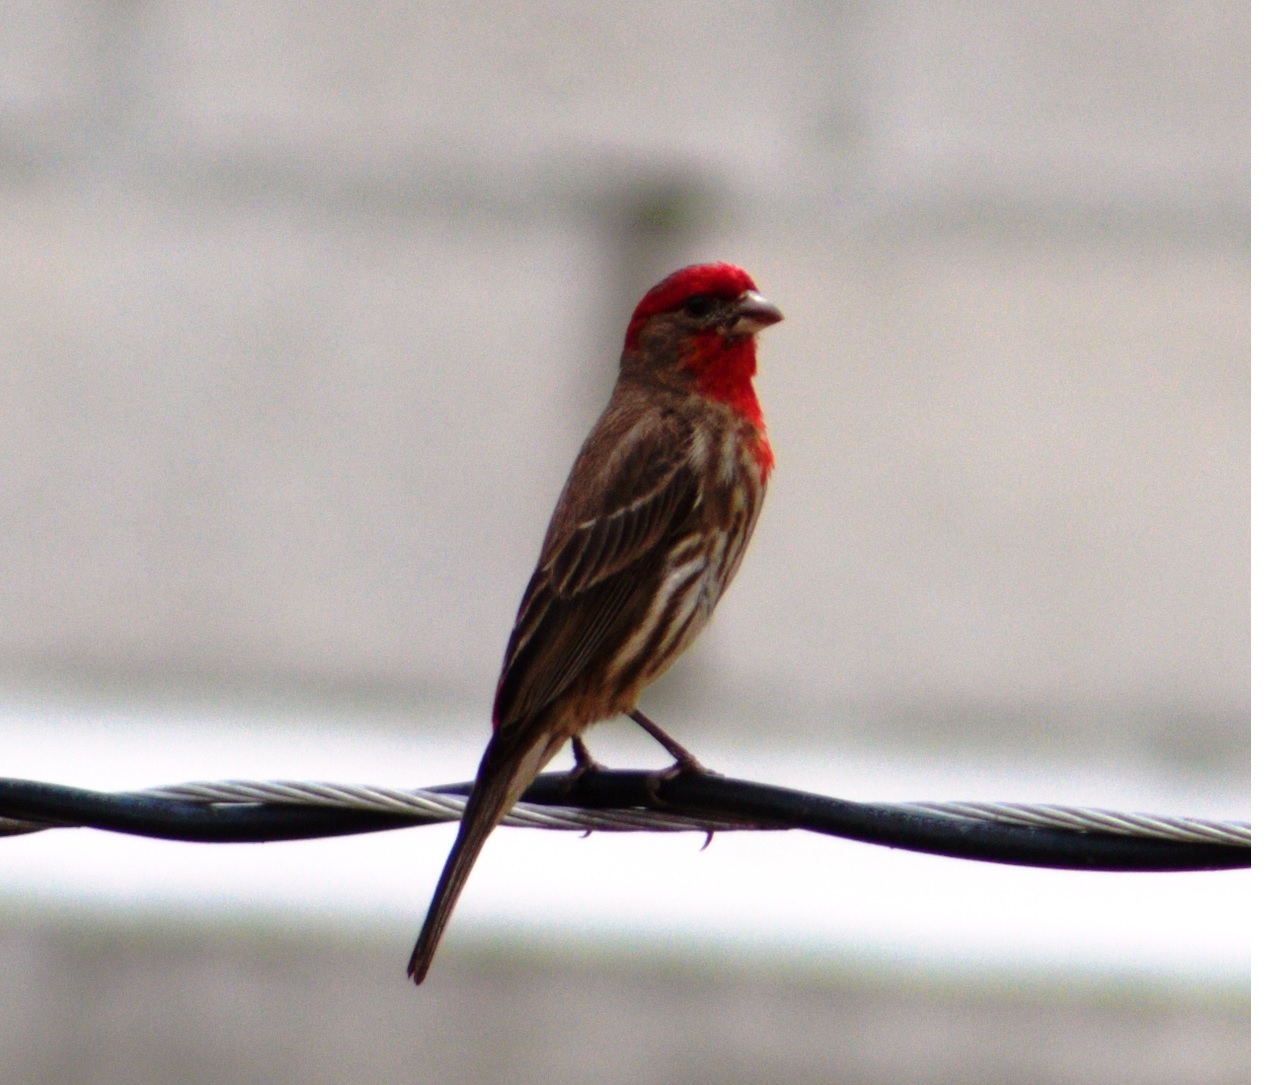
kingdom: Animalia
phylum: Chordata
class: Aves
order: Passeriformes
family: Fringillidae
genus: Haemorhous
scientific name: Haemorhous mexicanus
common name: House finch
